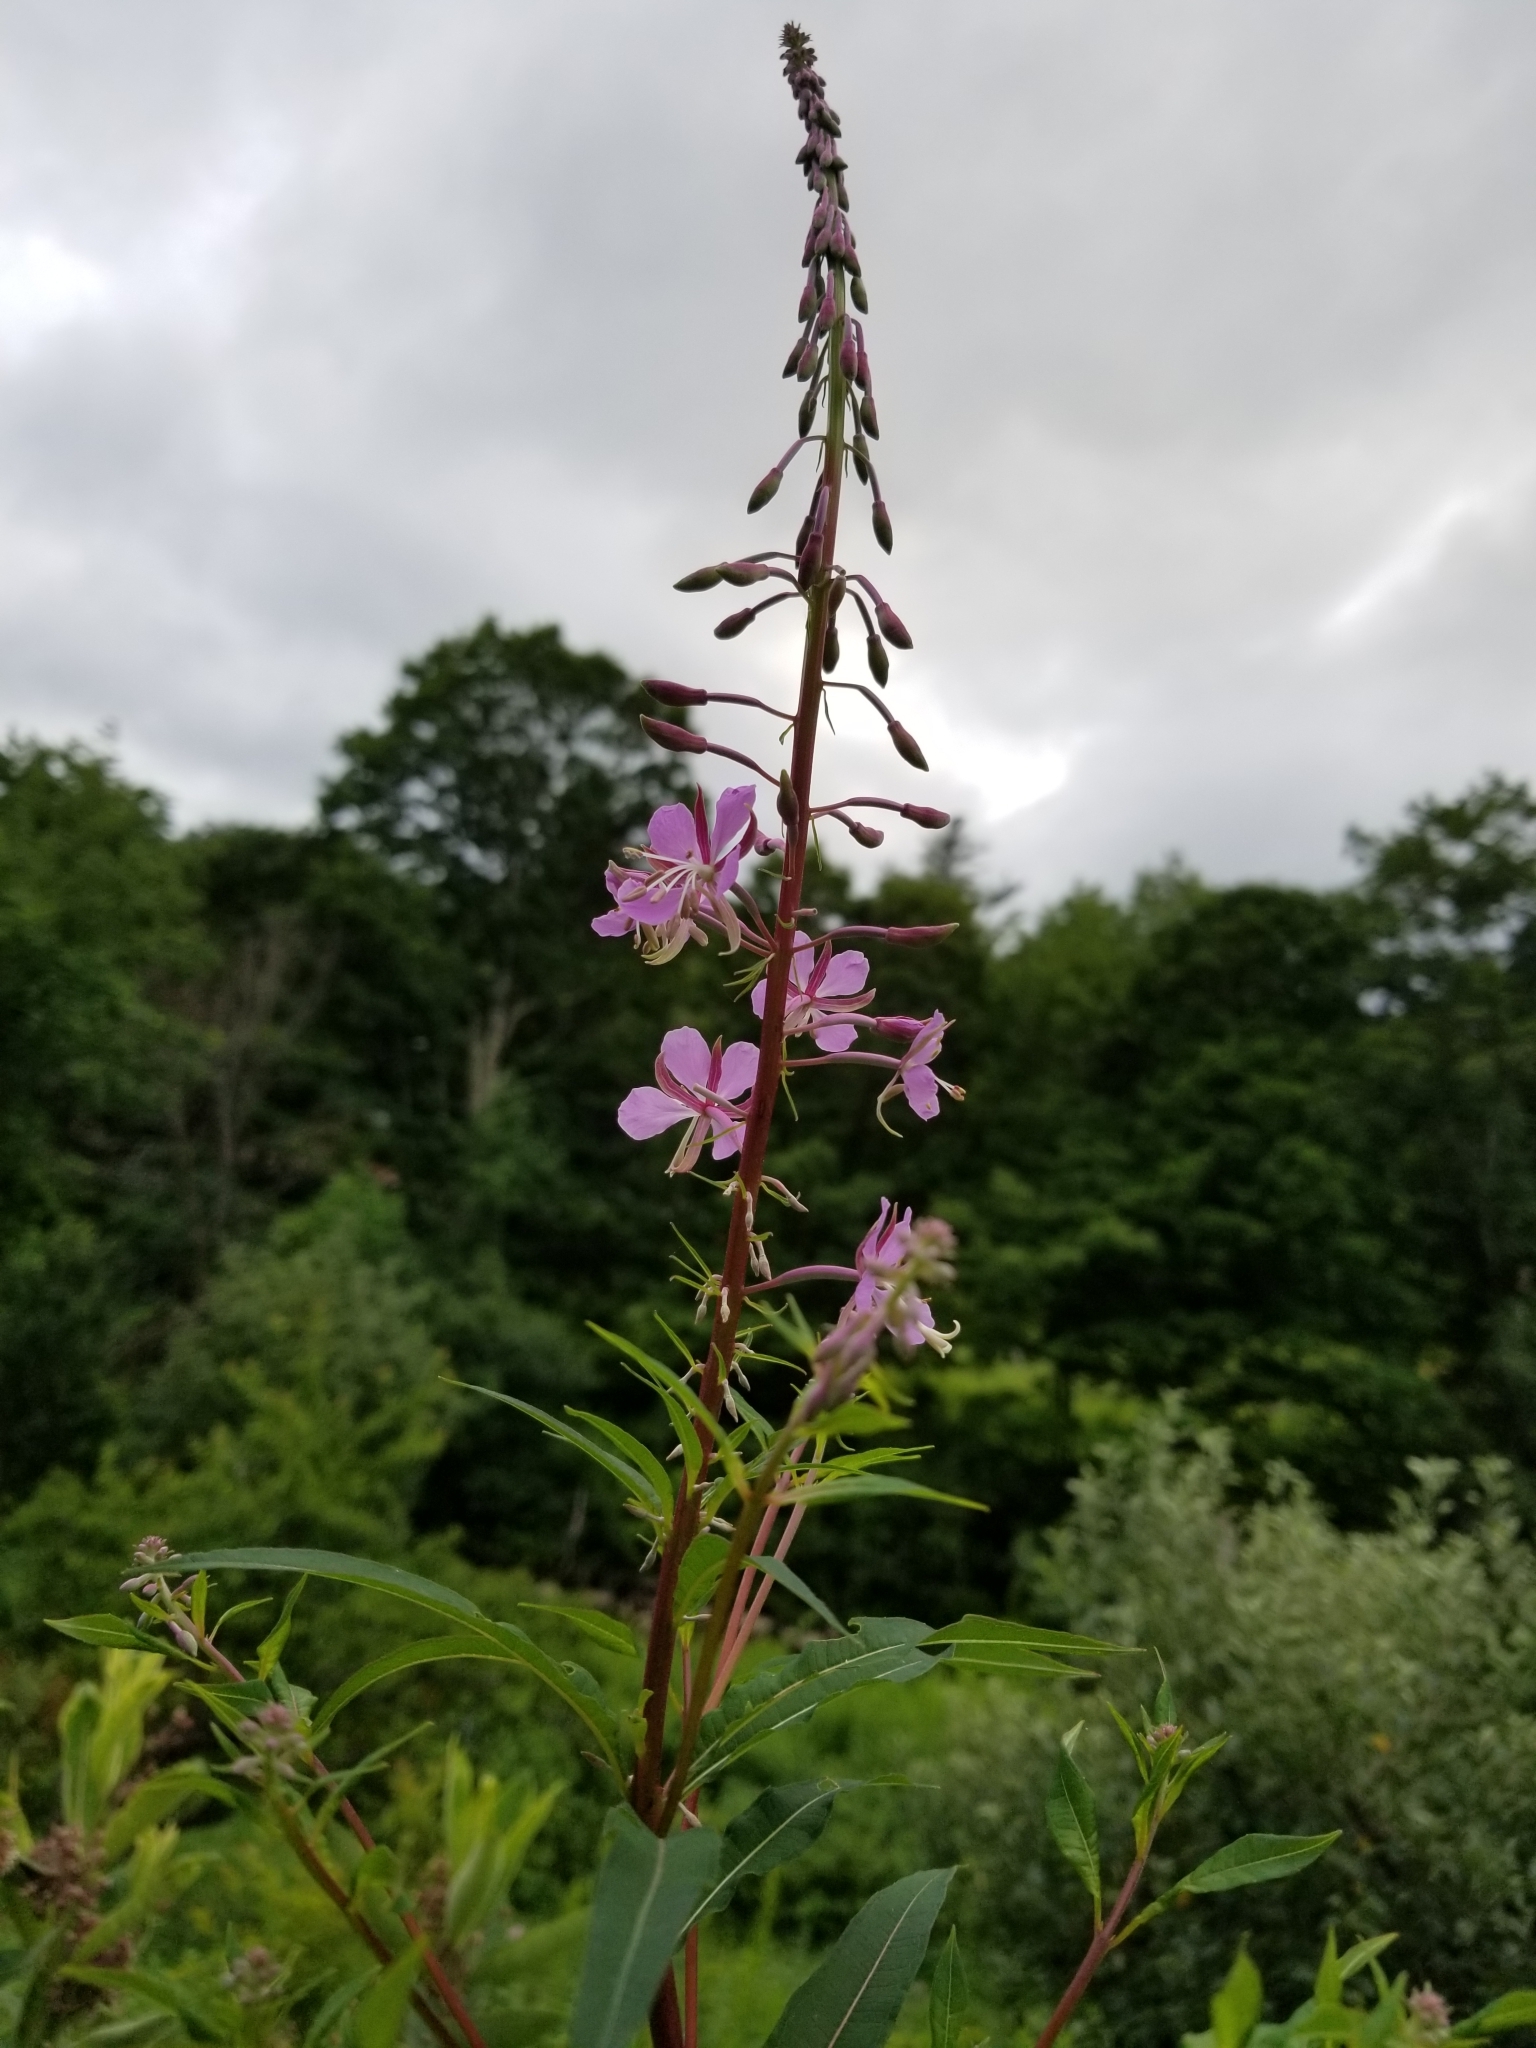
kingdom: Plantae
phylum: Tracheophyta
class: Magnoliopsida
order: Myrtales
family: Onagraceae
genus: Chamaenerion
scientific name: Chamaenerion angustifolium
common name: Fireweed
